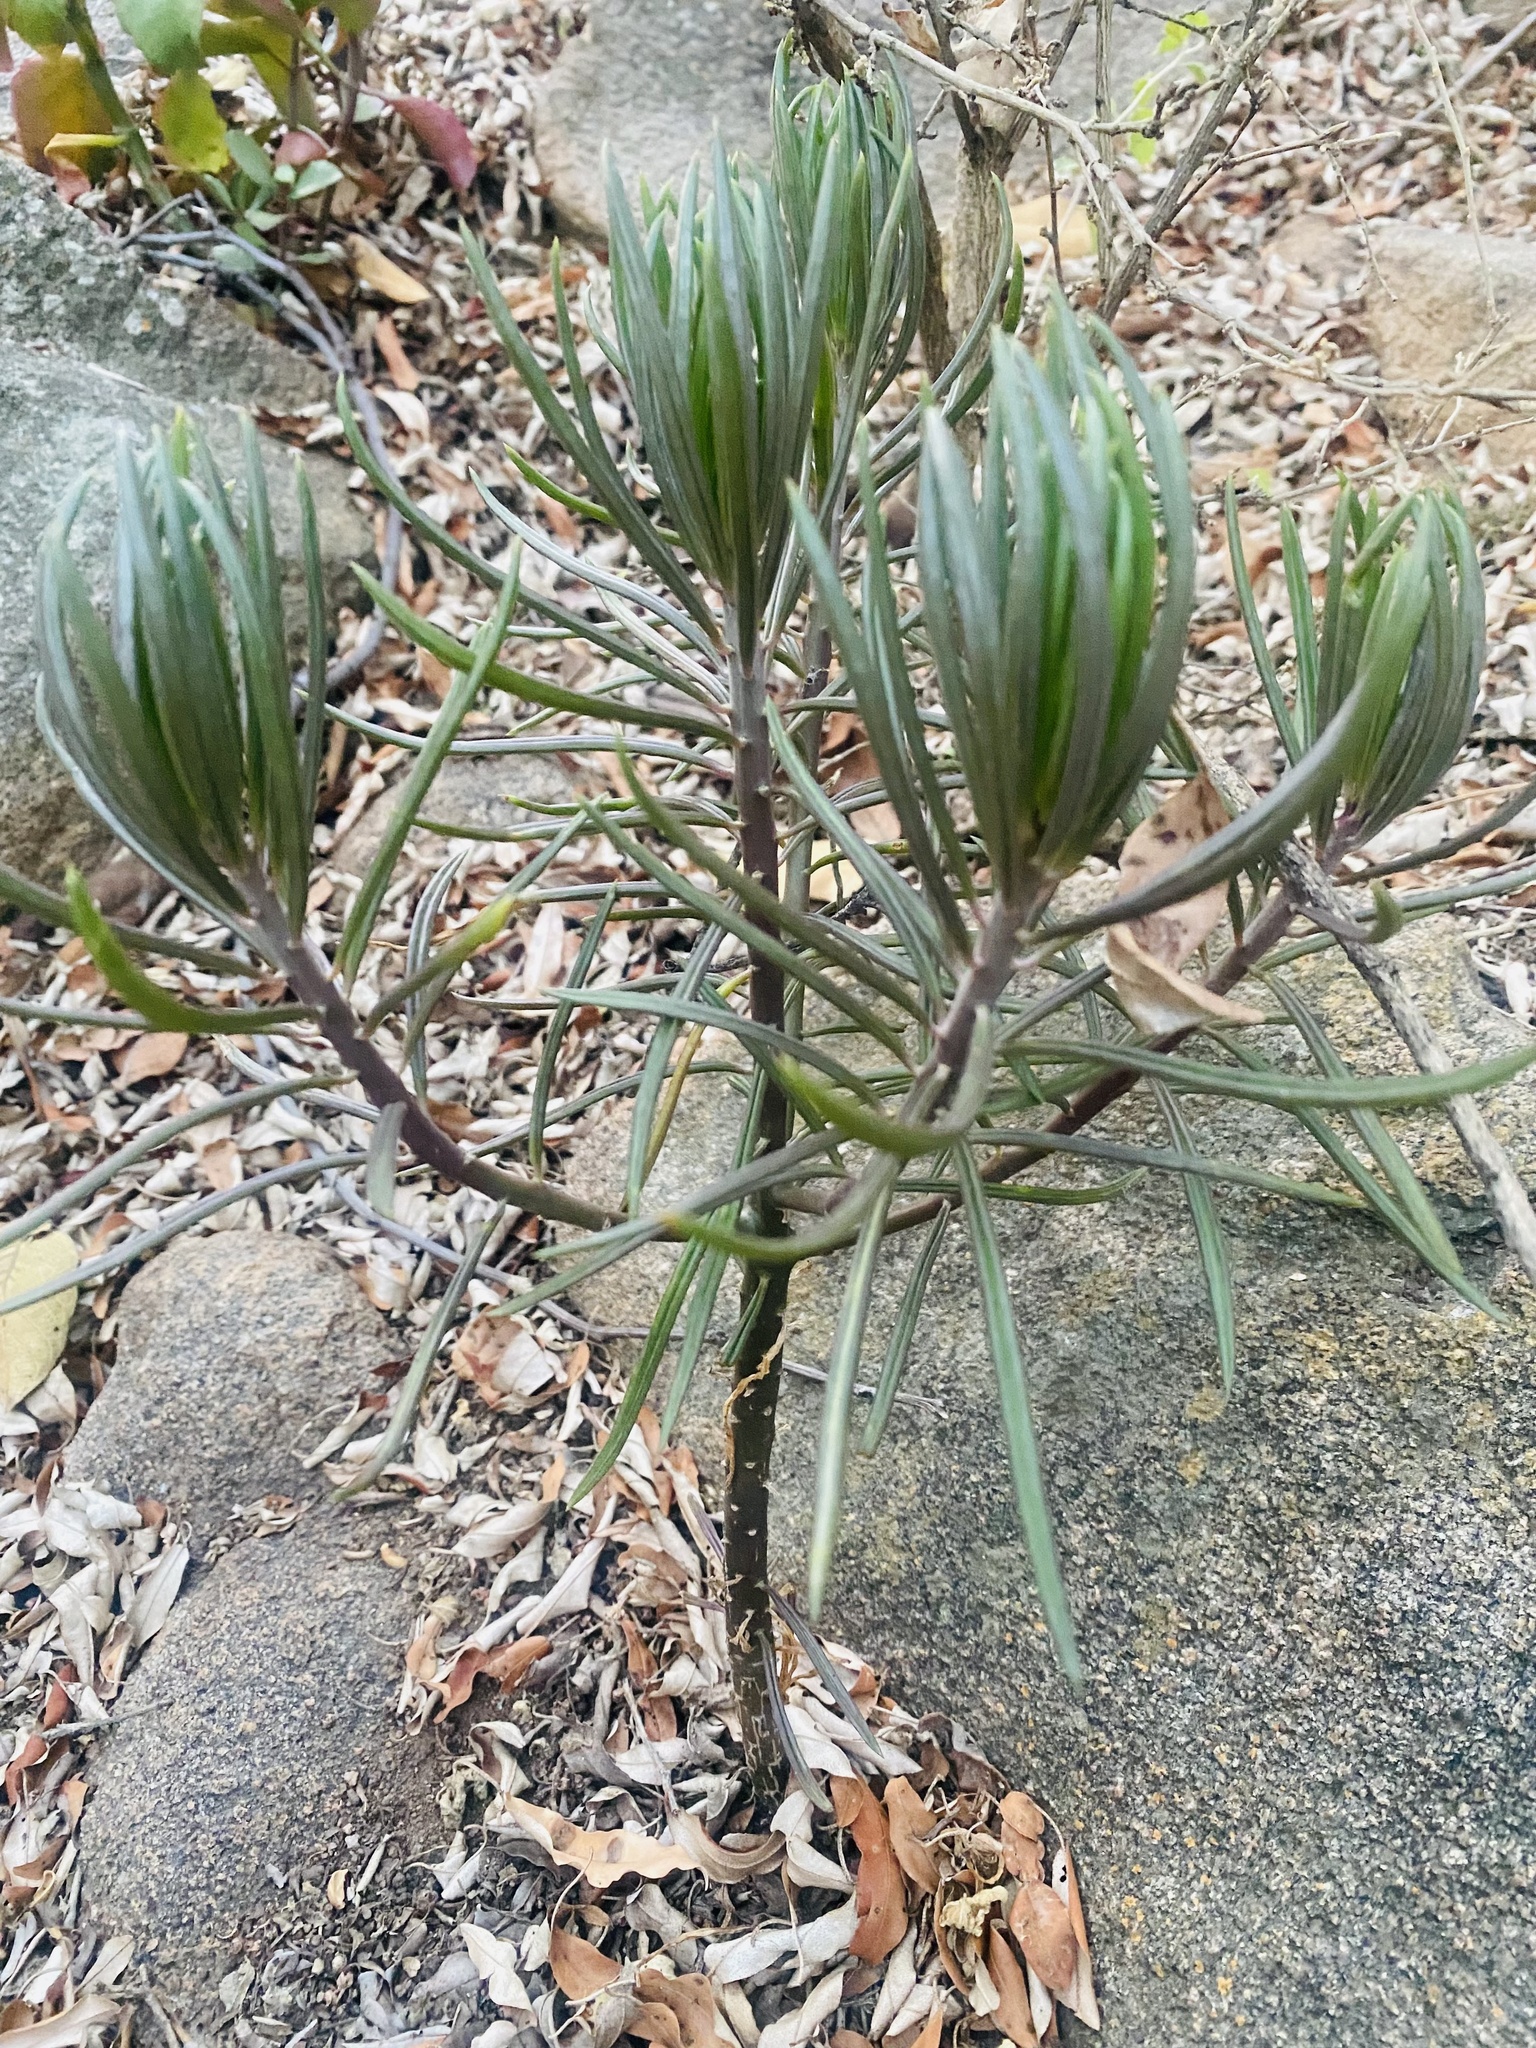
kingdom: Plantae
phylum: Tracheophyta
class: Magnoliopsida
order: Asterales
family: Asteraceae
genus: Kleinia
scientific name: Kleinia barbertonica
